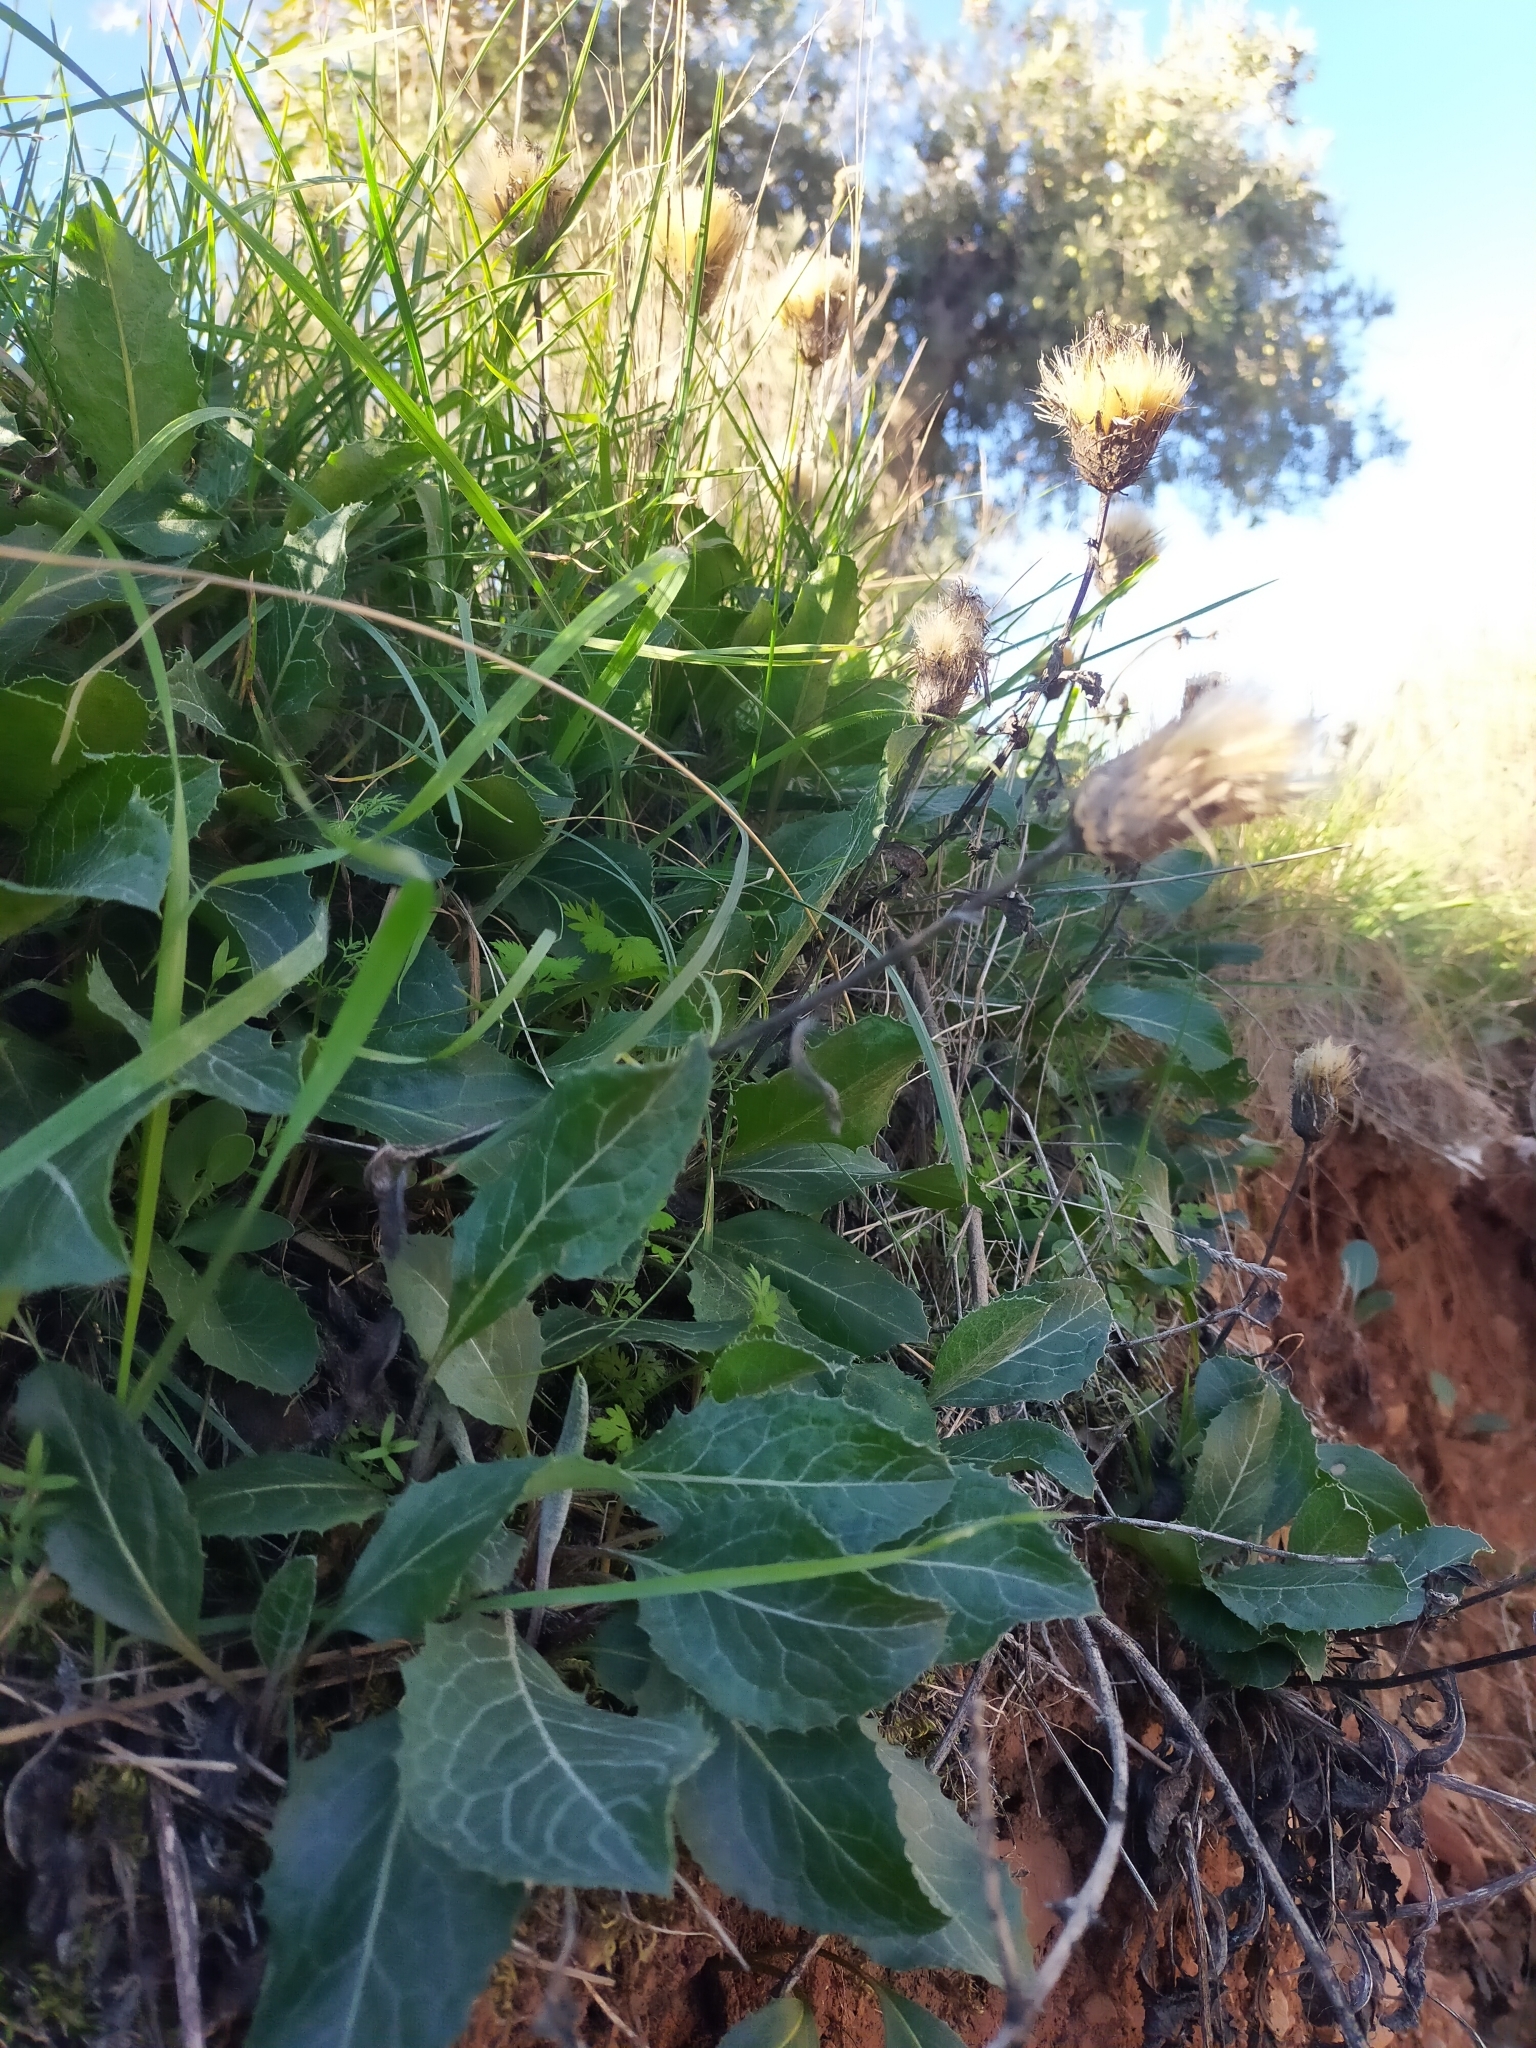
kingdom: Plantae
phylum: Tracheophyta
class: Magnoliopsida
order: Asterales
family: Asteraceae
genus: Klasea
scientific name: Klasea pinnatifida
